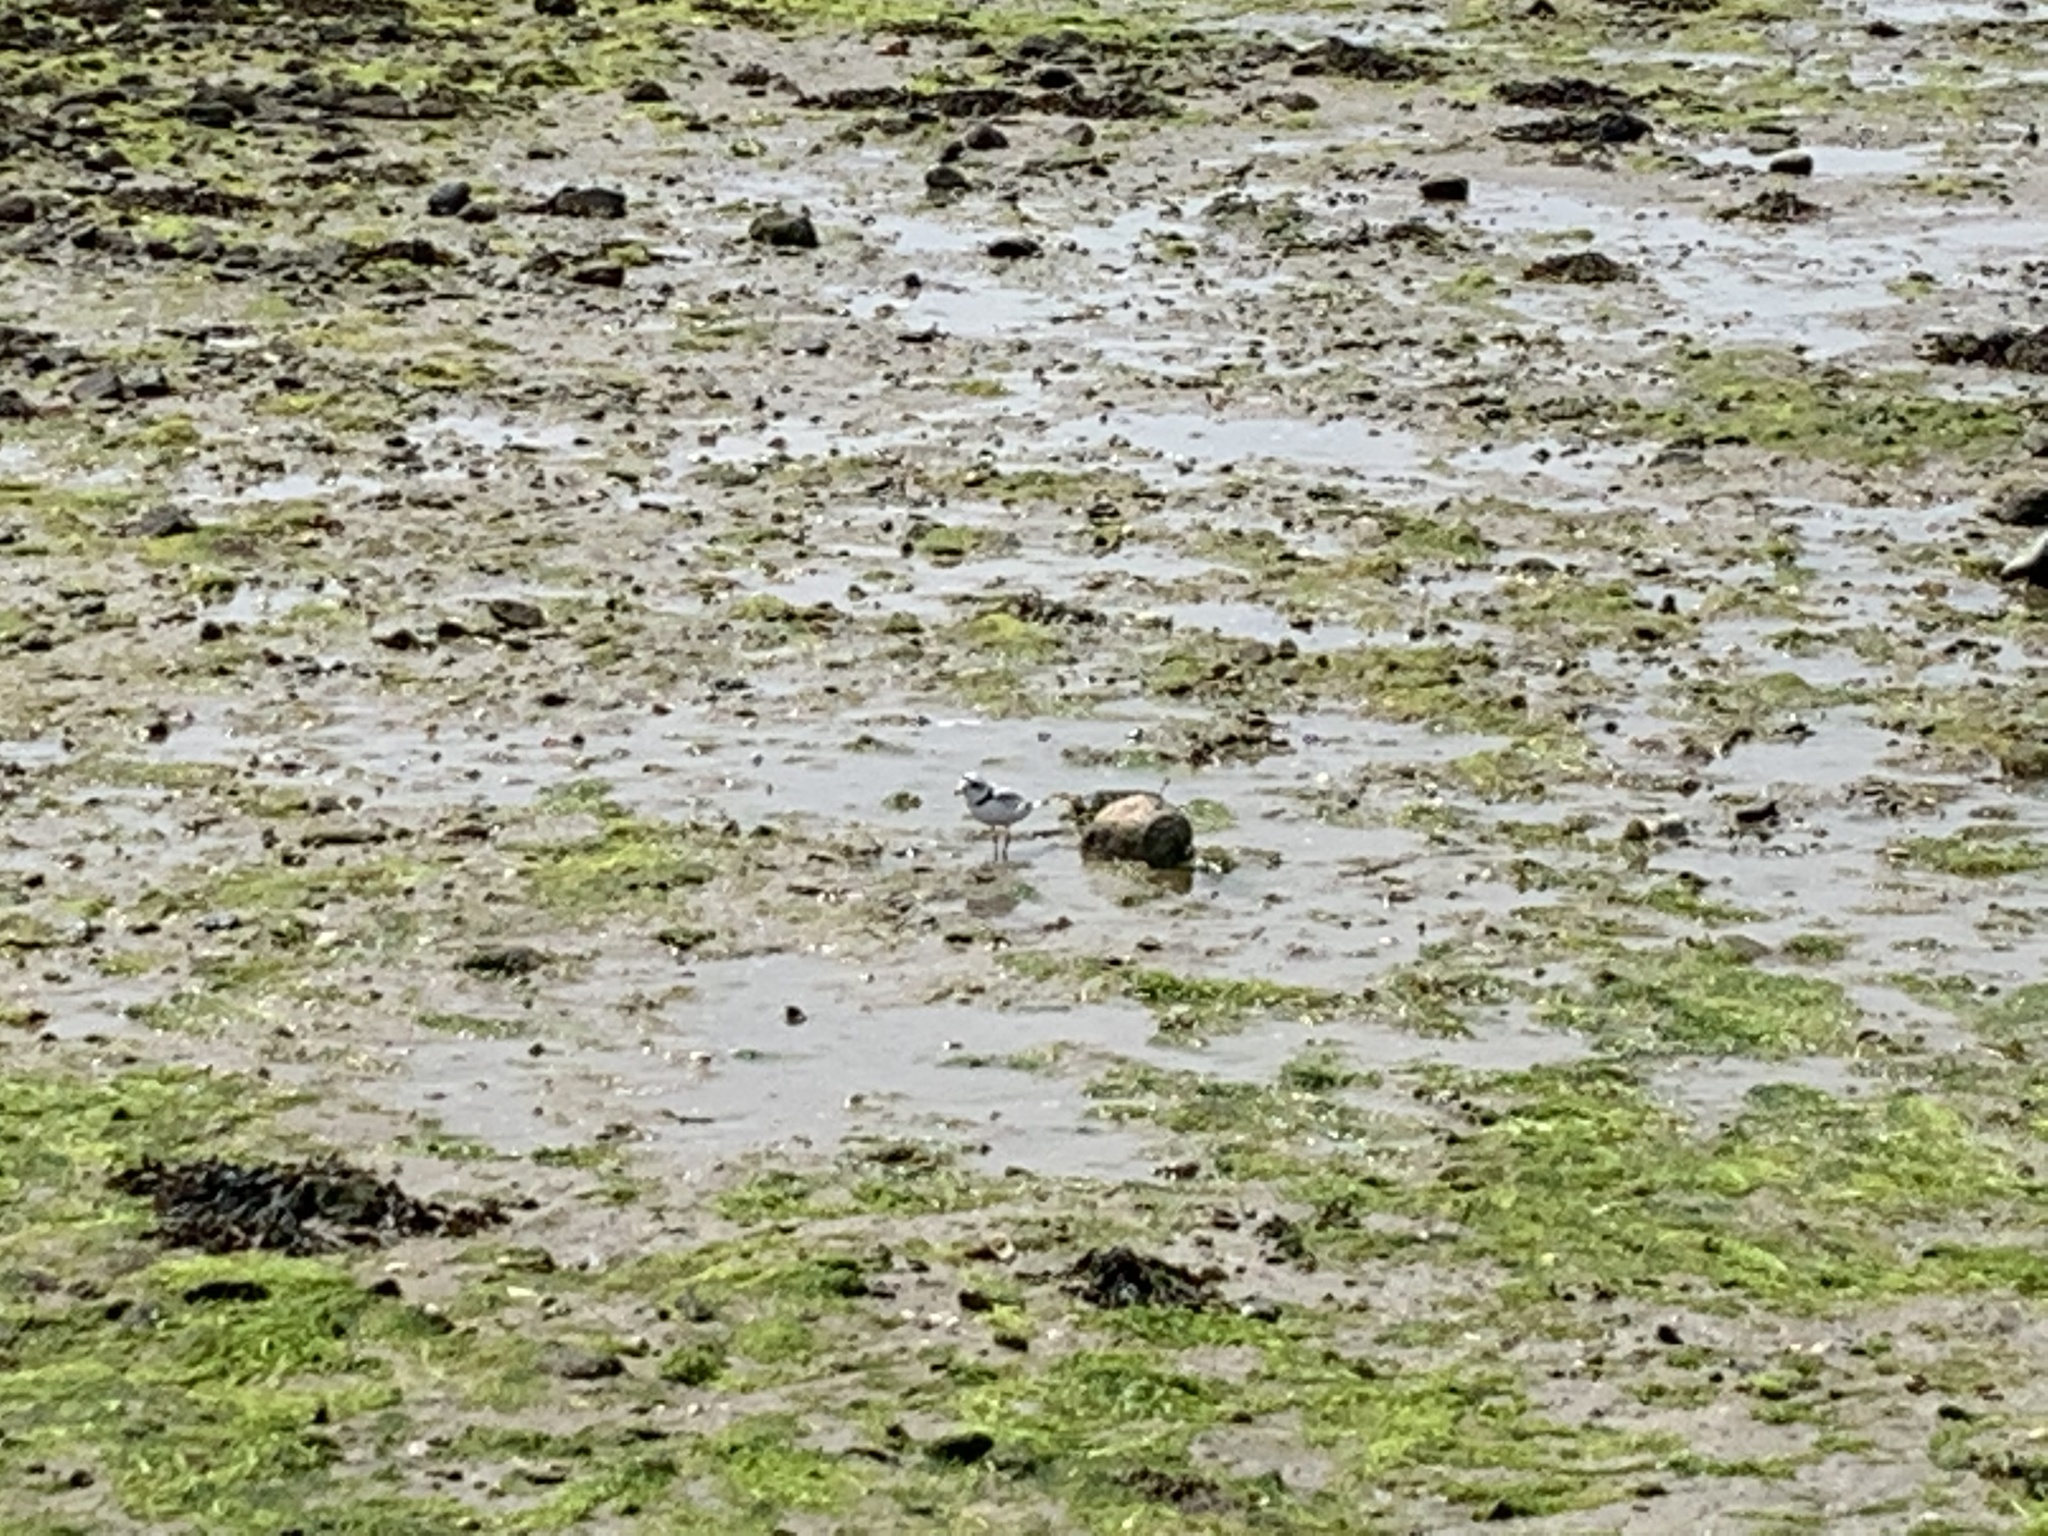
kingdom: Animalia
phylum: Chordata
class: Aves
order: Charadriiformes
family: Charadriidae
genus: Charadrius
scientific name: Charadrius melodus
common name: Piping plover
